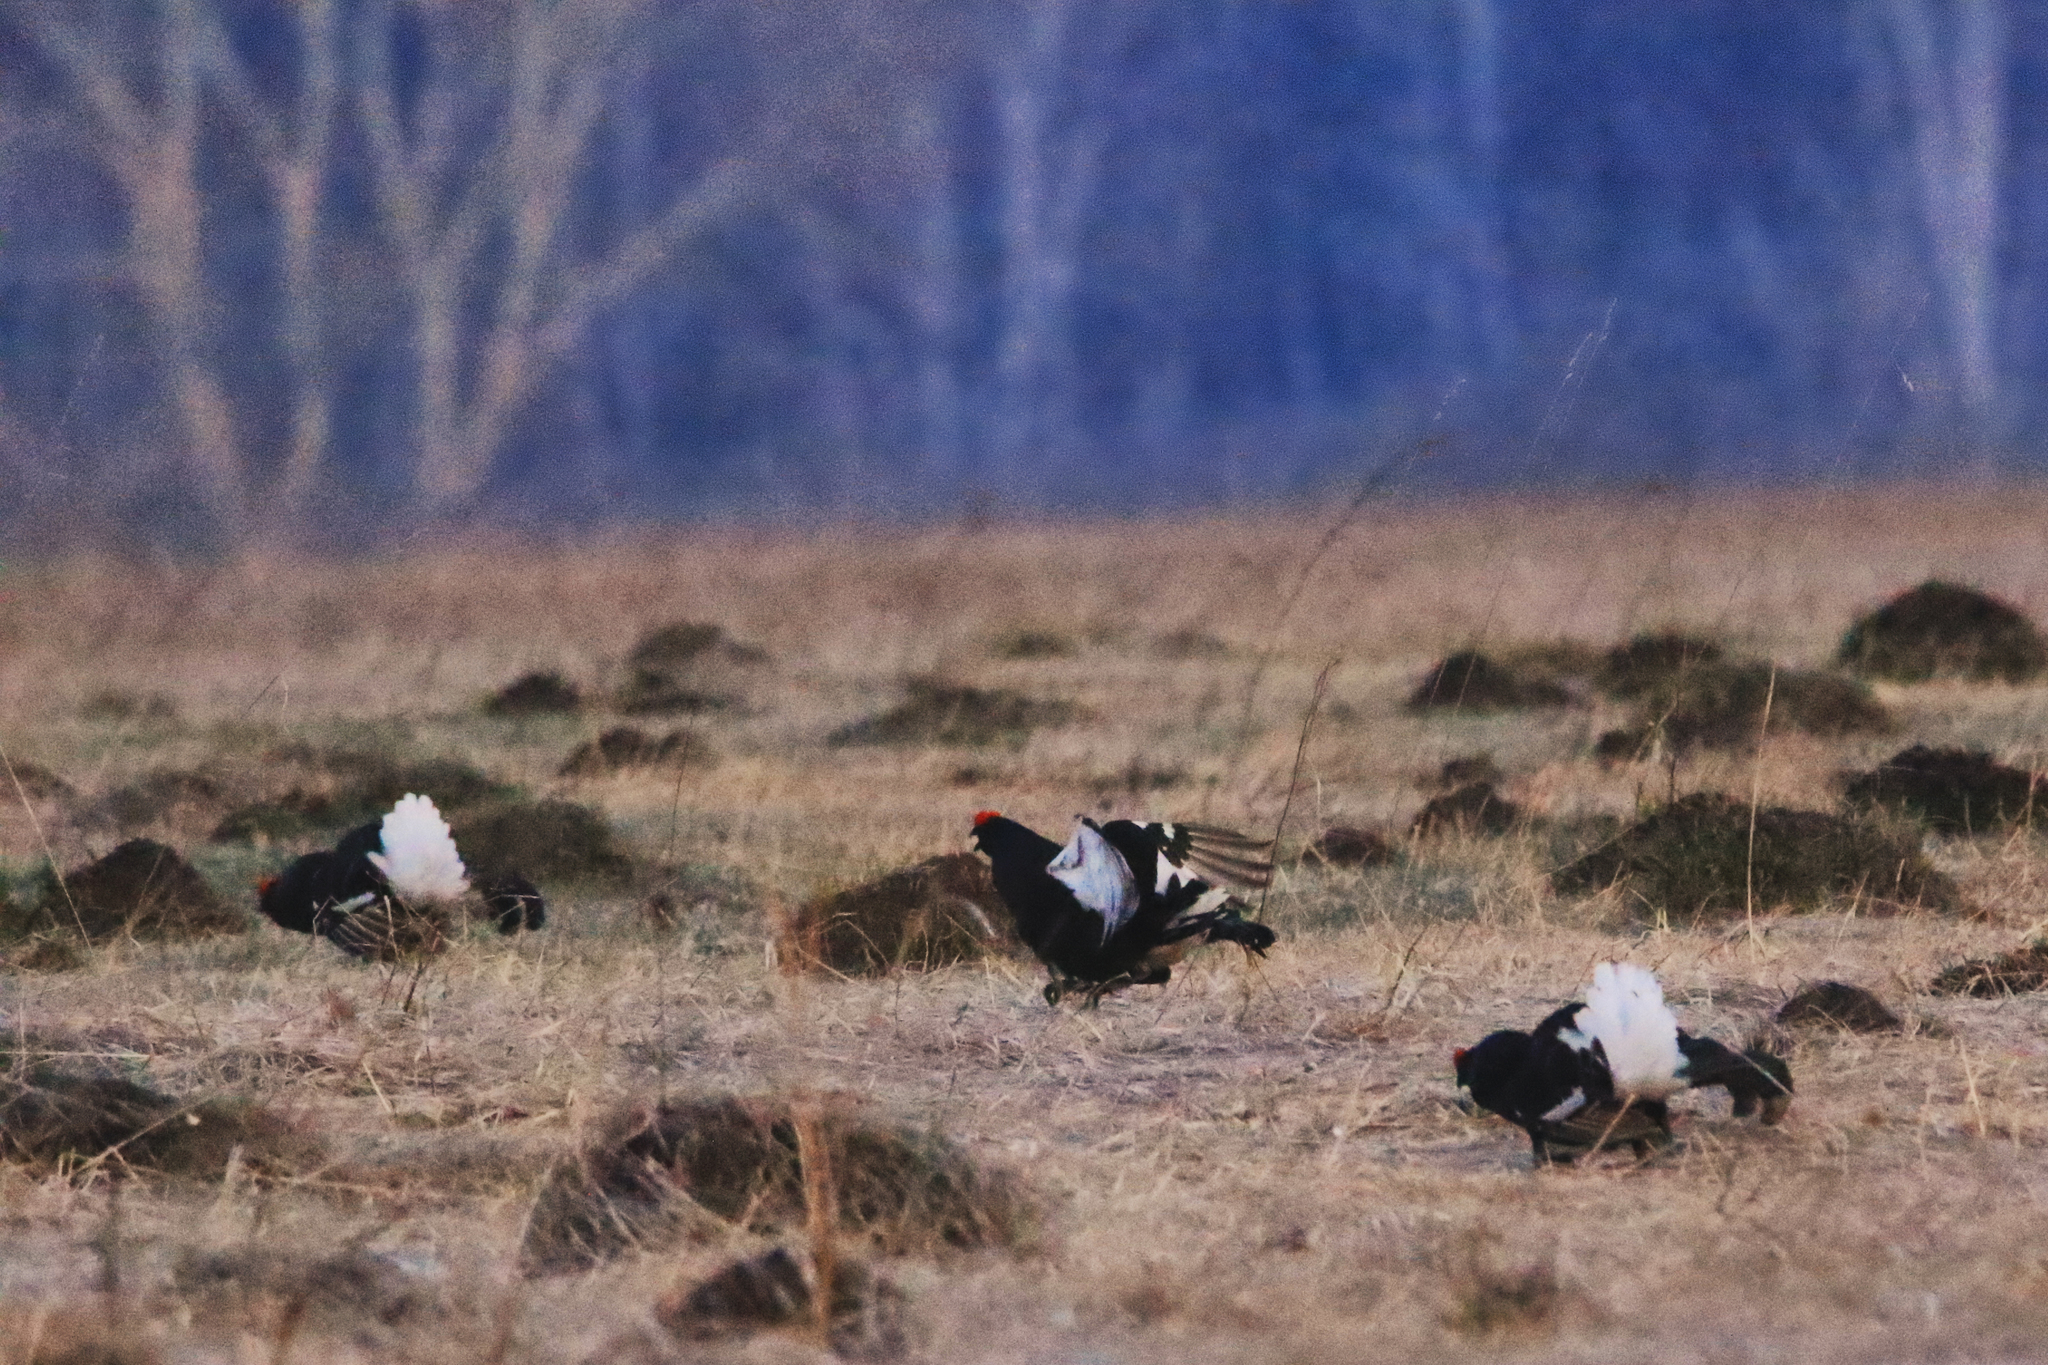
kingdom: Animalia
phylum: Chordata
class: Aves
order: Galliformes
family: Phasianidae
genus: Lyrurus
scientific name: Lyrurus tetrix
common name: Black grouse
